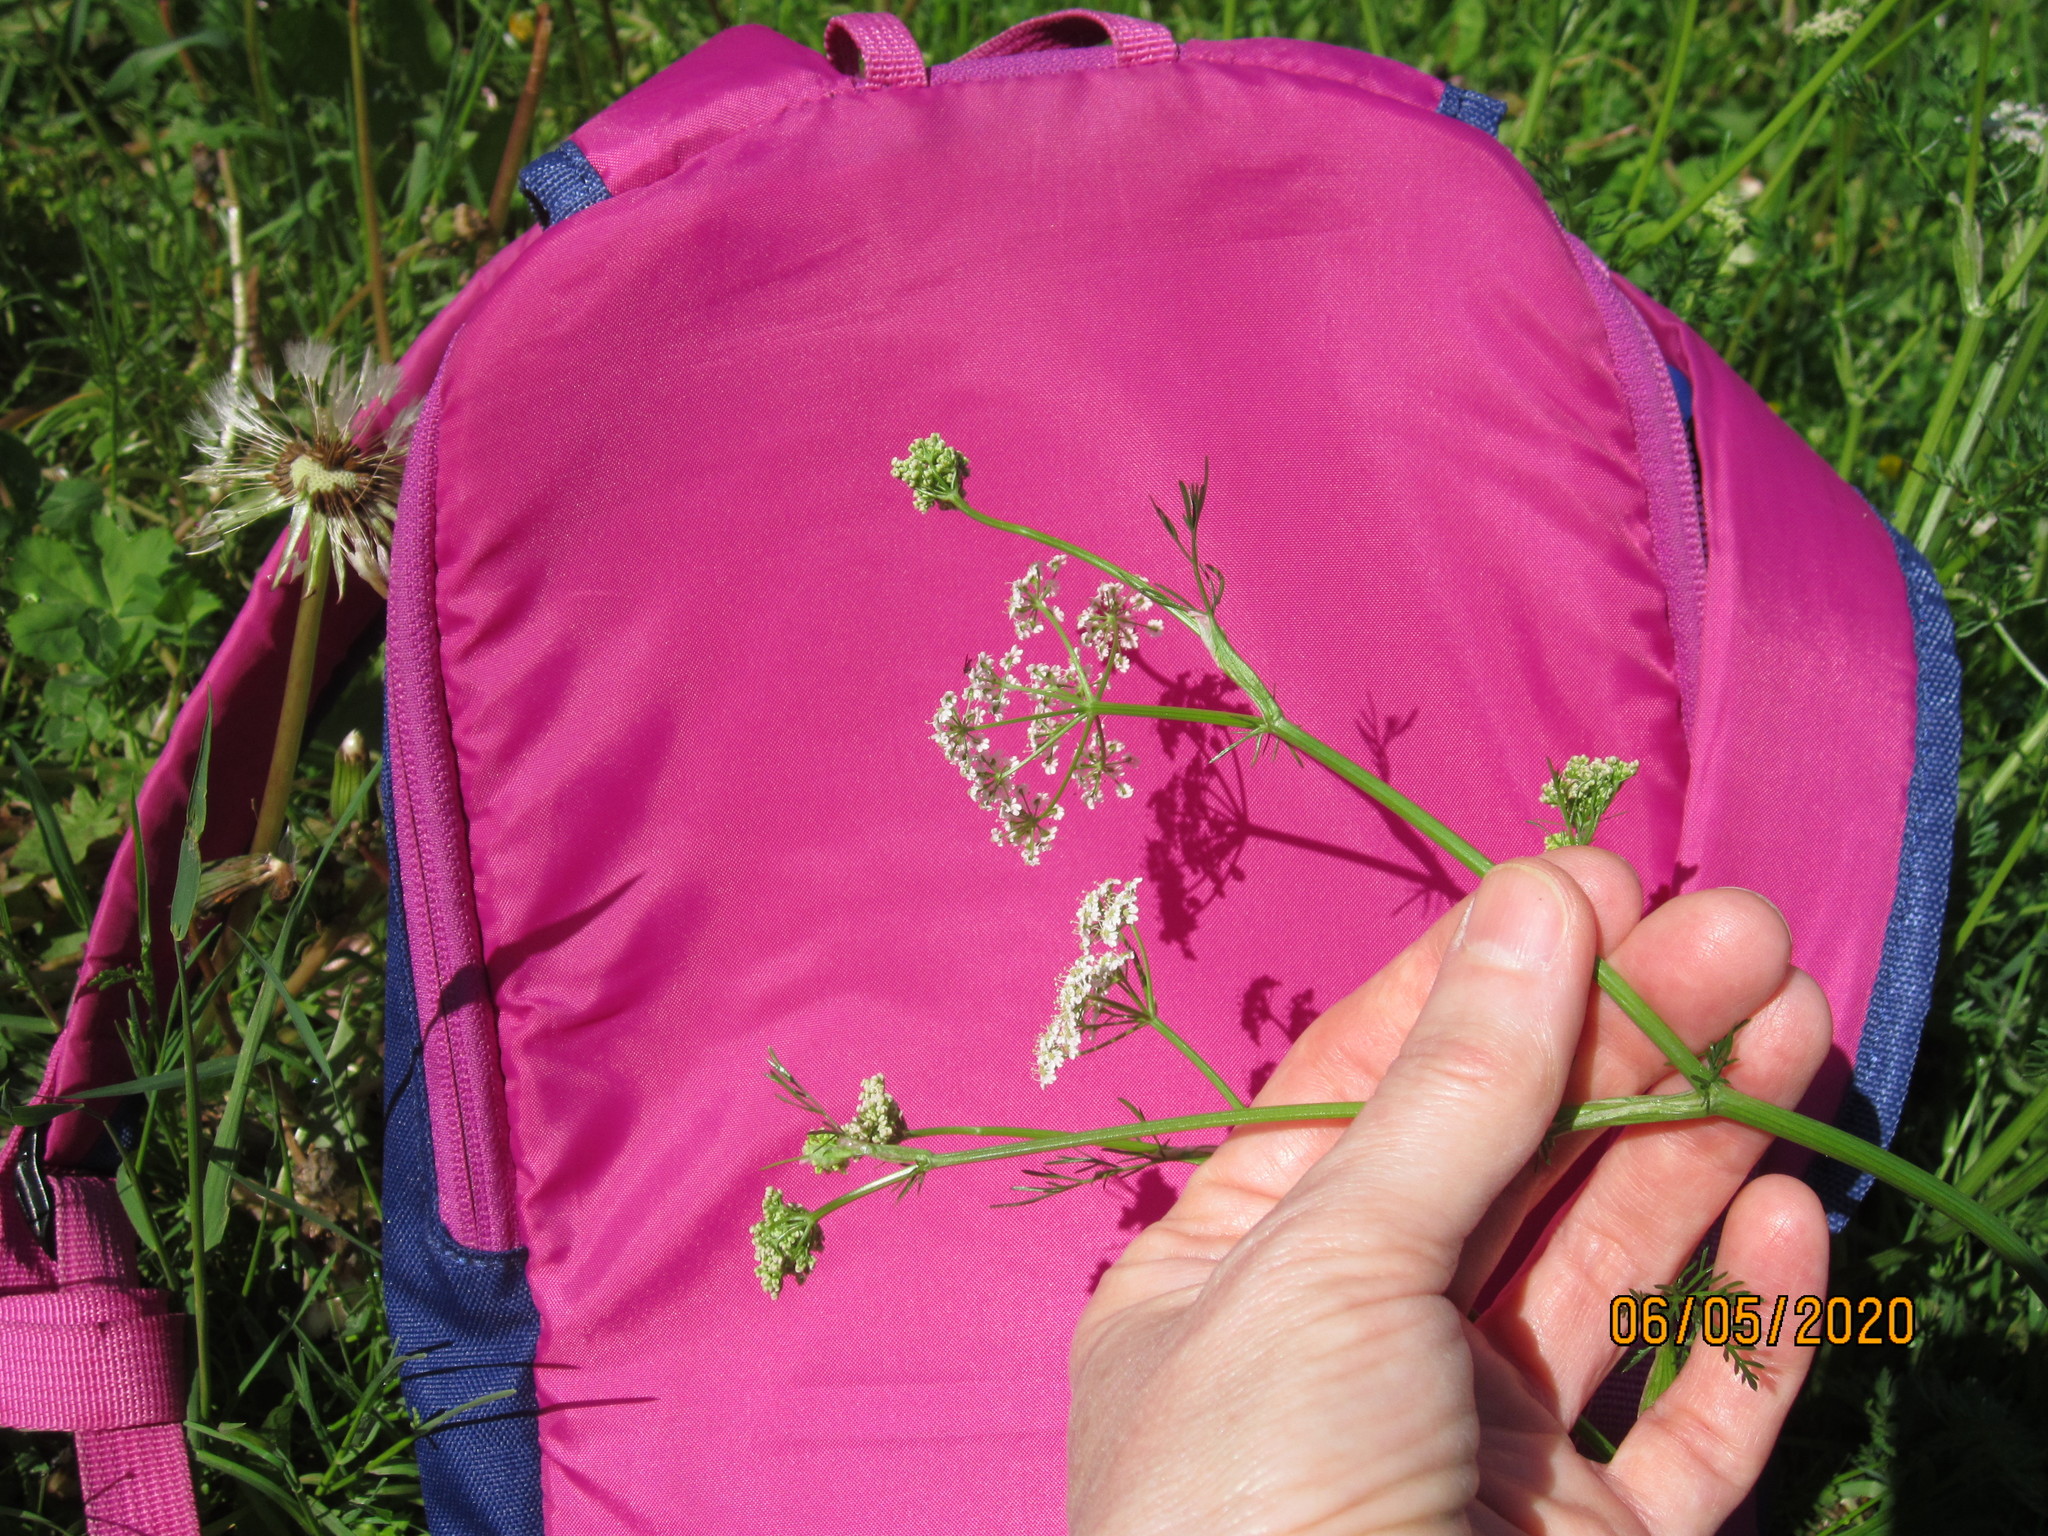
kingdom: Plantae
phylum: Tracheophyta
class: Magnoliopsida
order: Apiales
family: Apiaceae
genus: Carum
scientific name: Carum carvi
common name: Caraway
